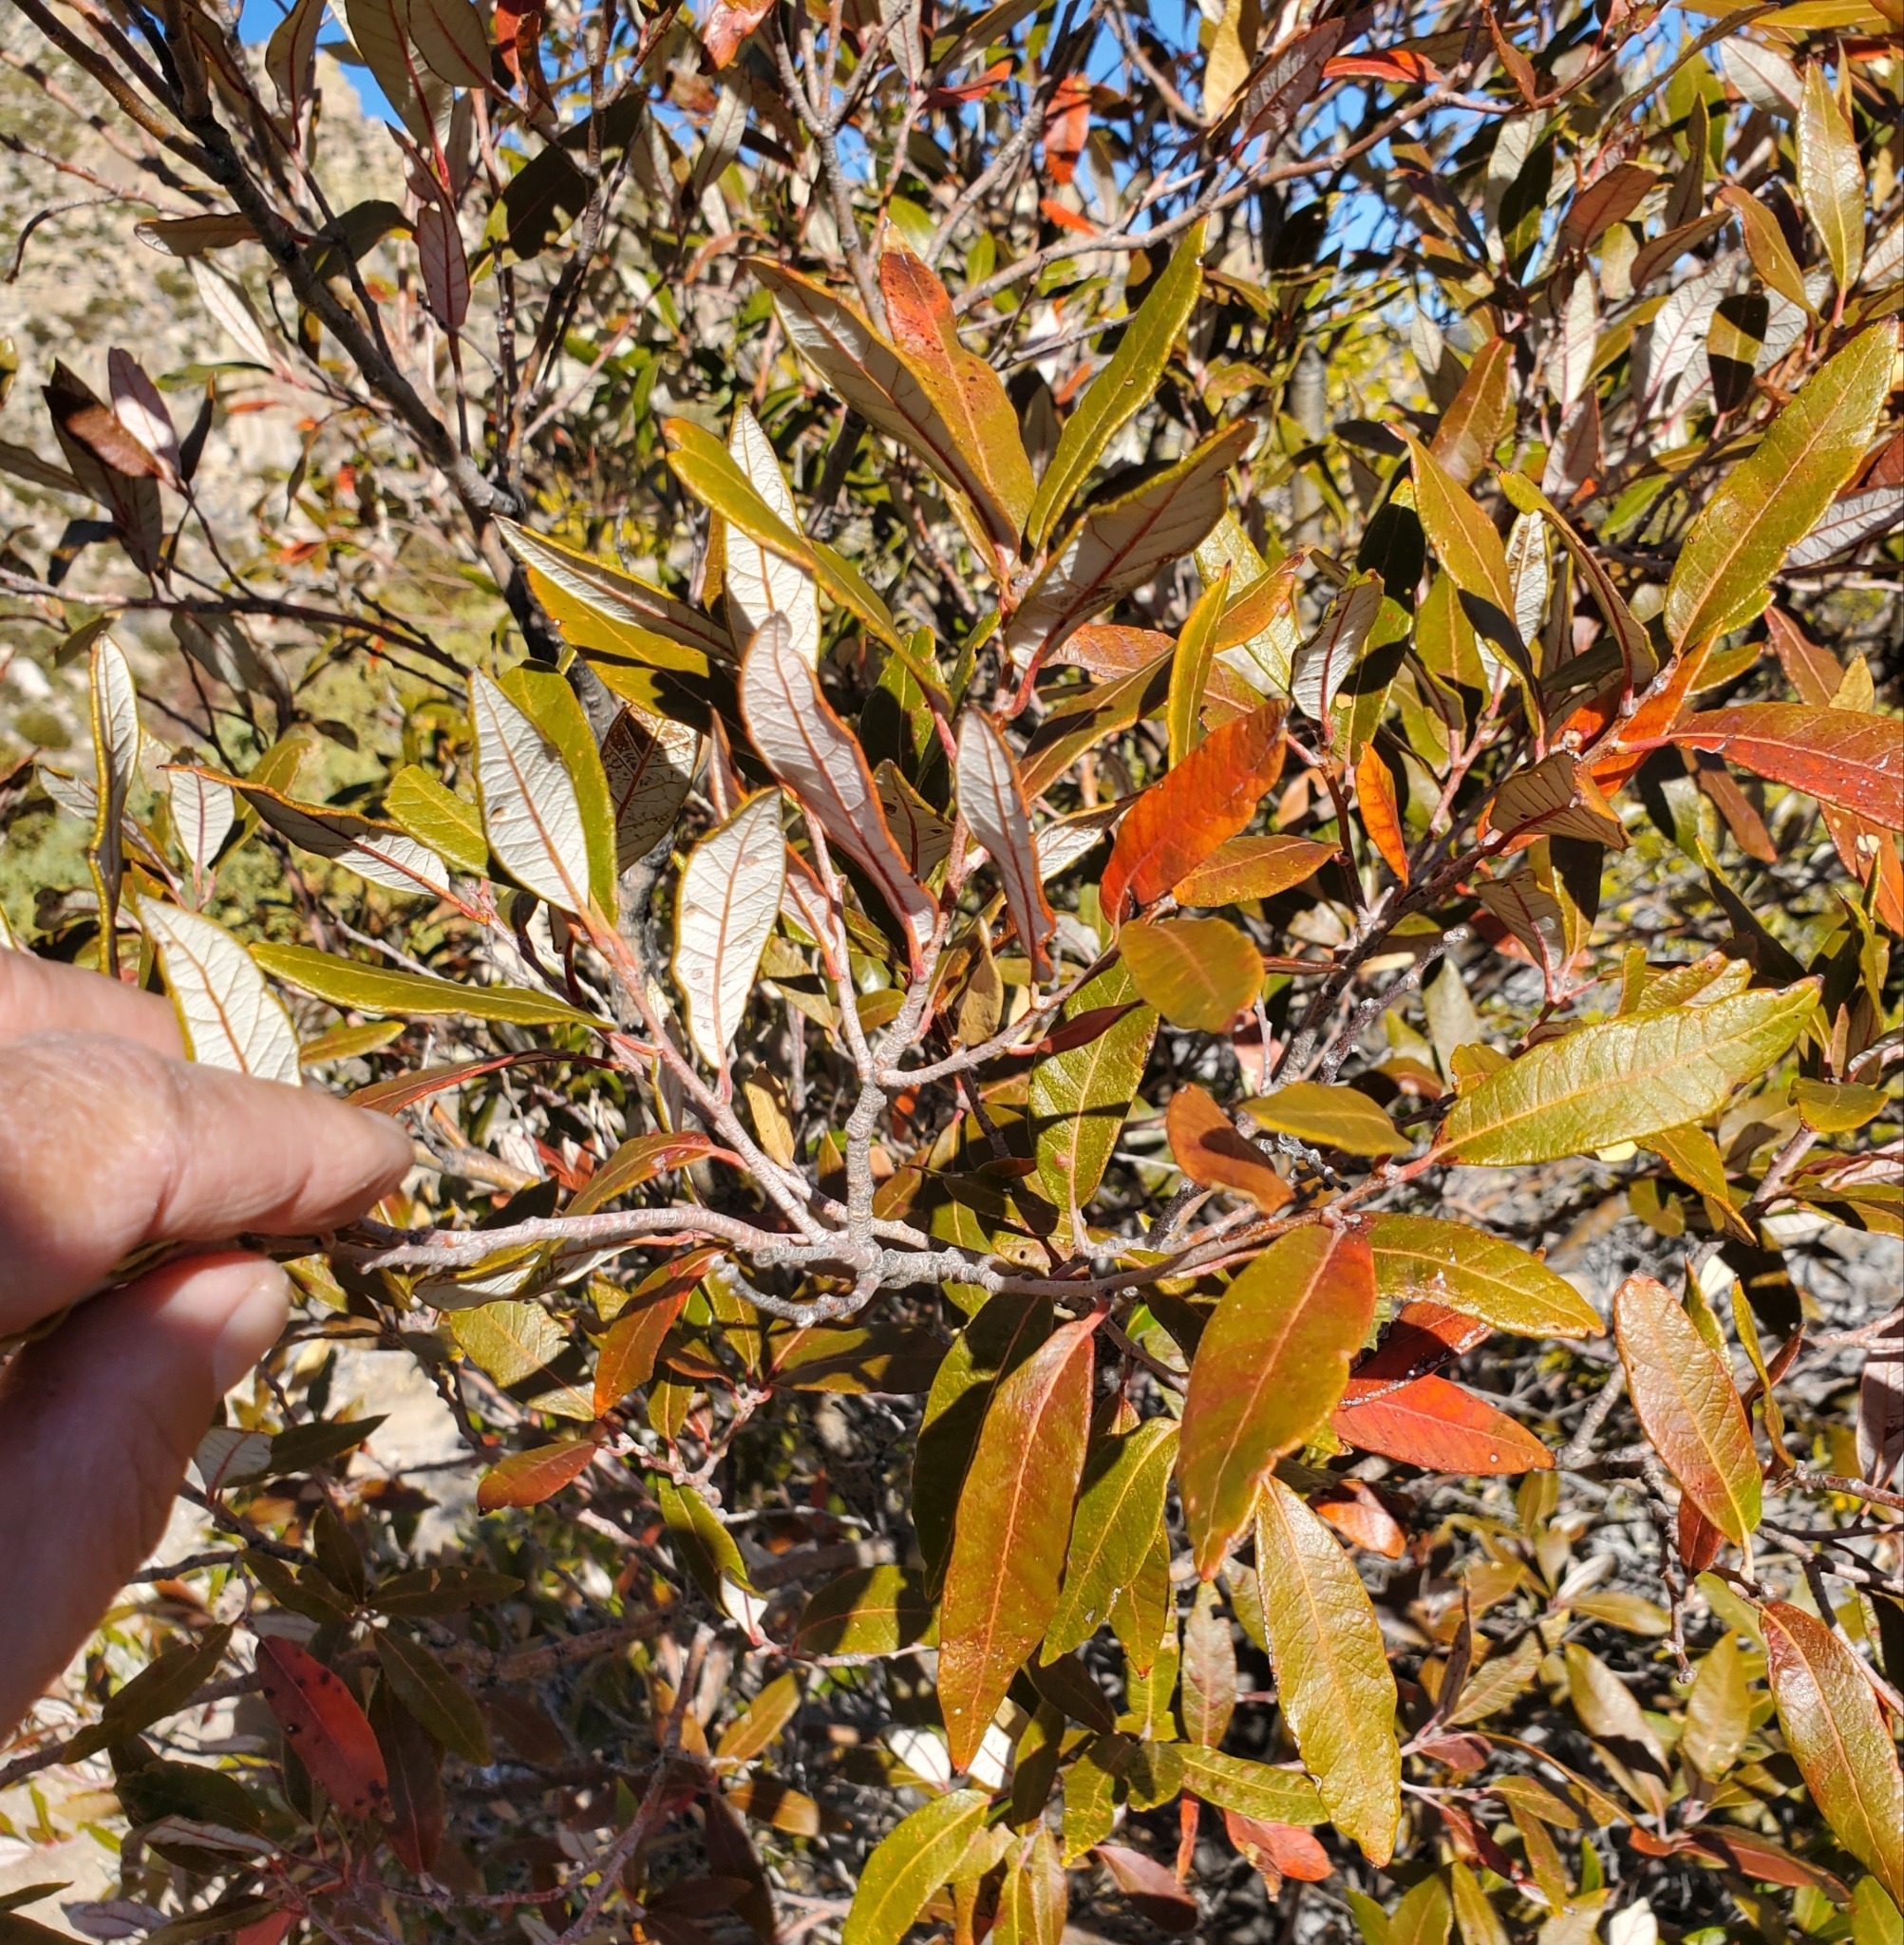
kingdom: Plantae
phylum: Tracheophyta
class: Magnoliopsida
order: Fagales
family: Fagaceae
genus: Quercus
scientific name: Quercus hypoleucoides
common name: Silverleaf oak
